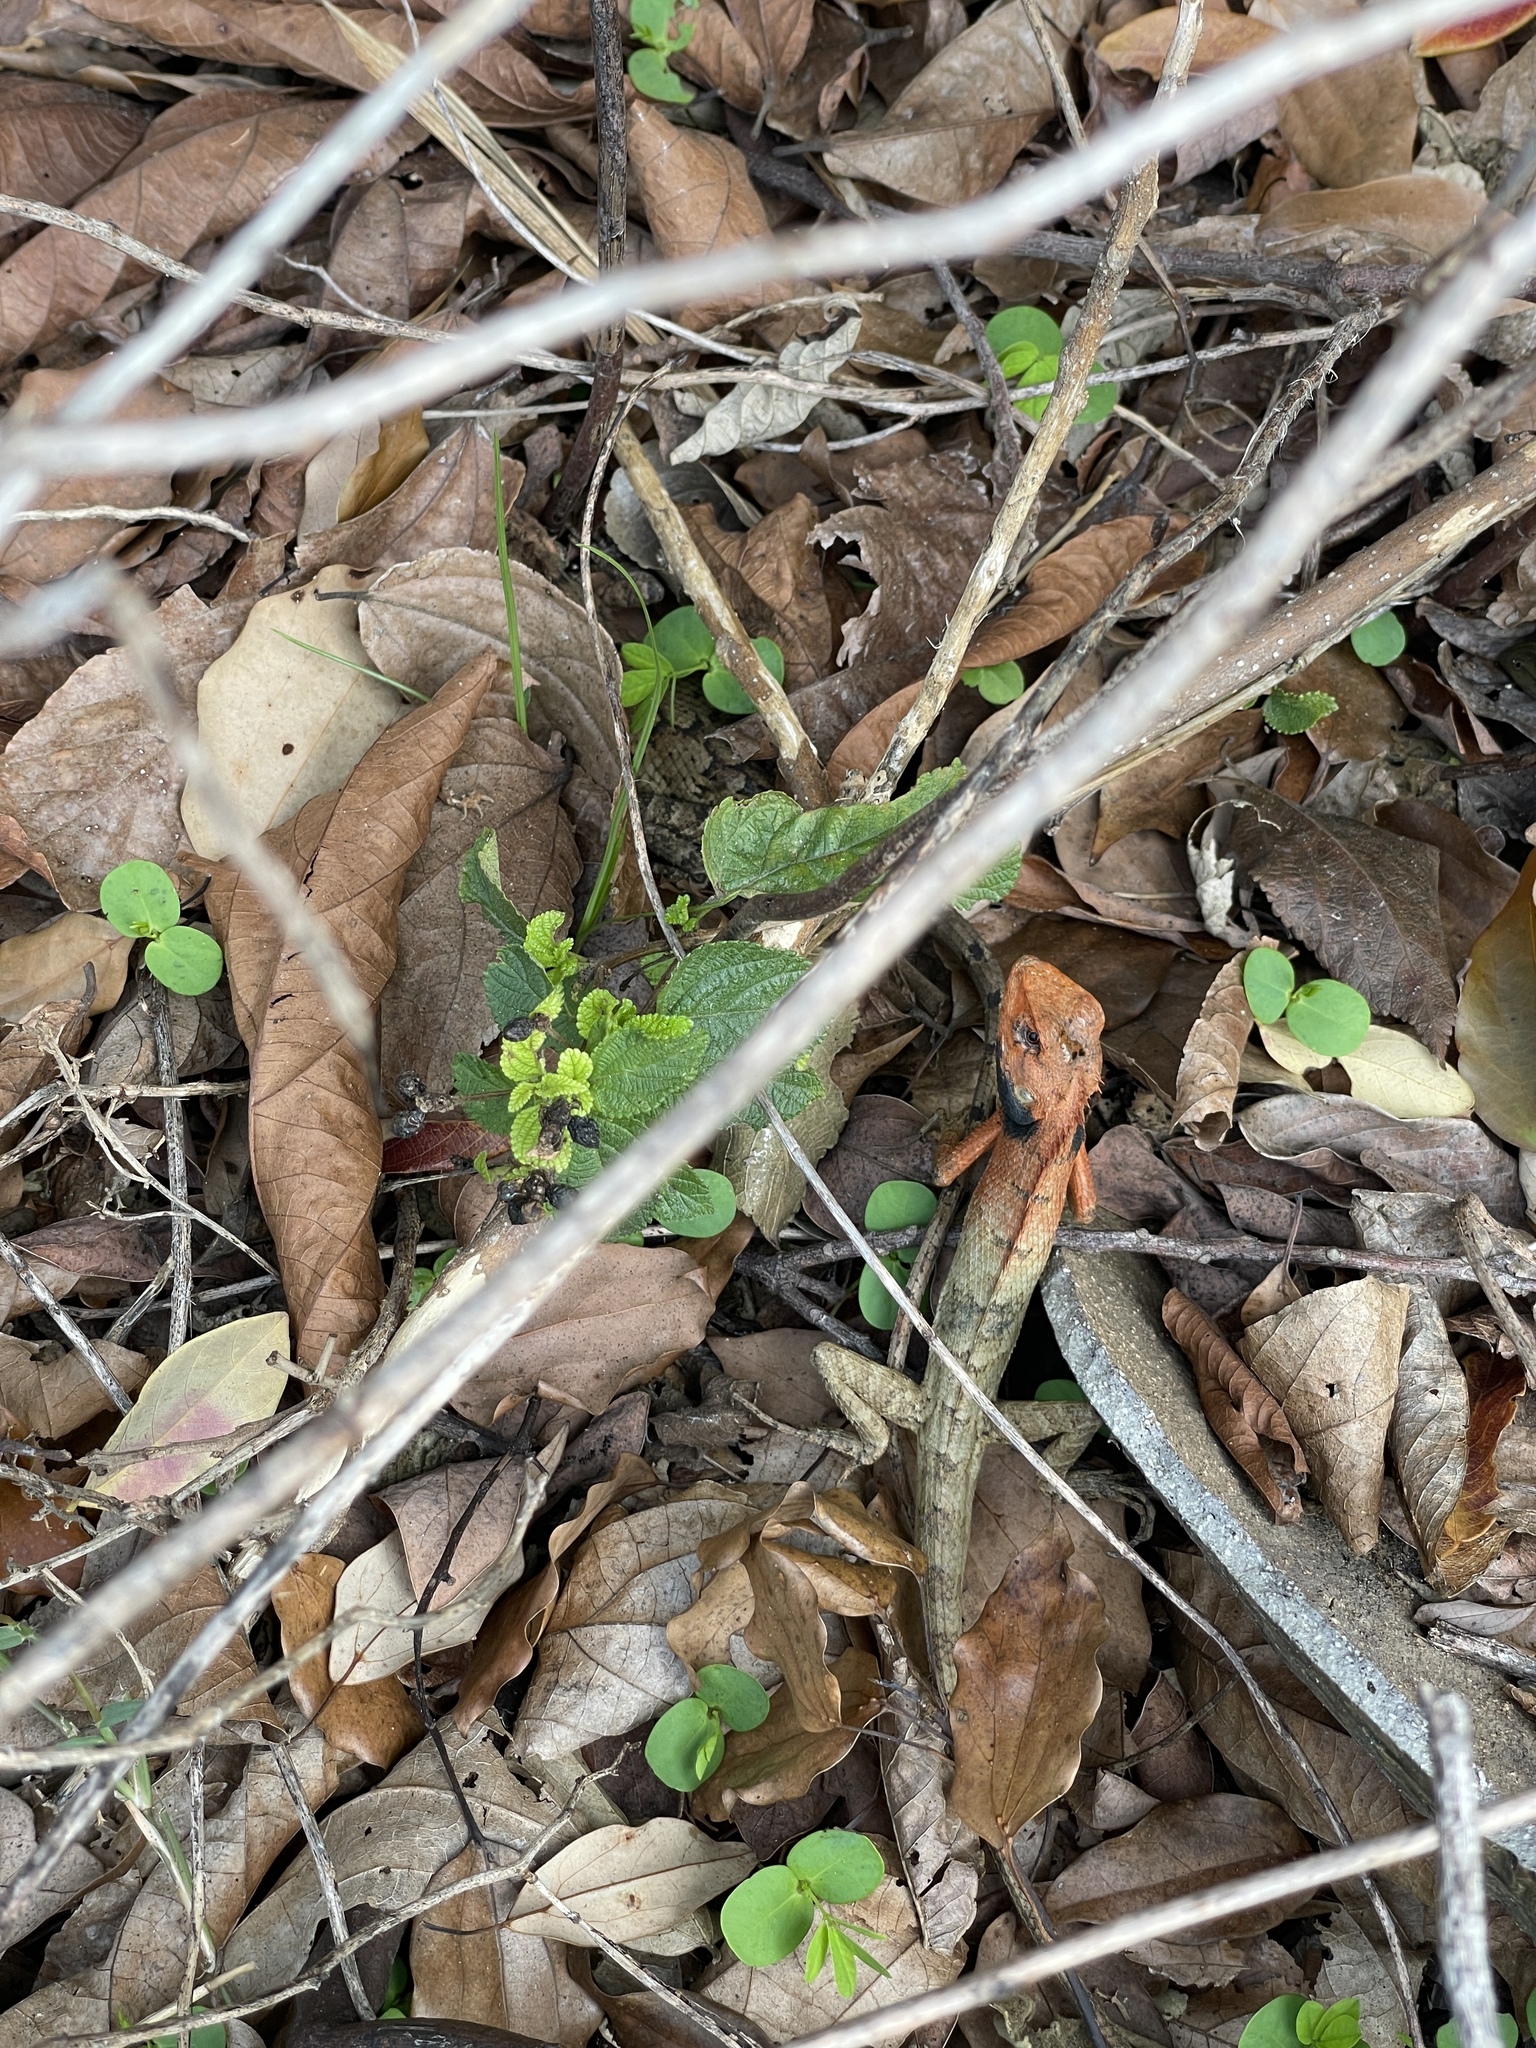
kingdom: Animalia
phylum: Chordata
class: Squamata
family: Agamidae
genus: Calotes
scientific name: Calotes versicolor
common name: Oriental garden lizard
